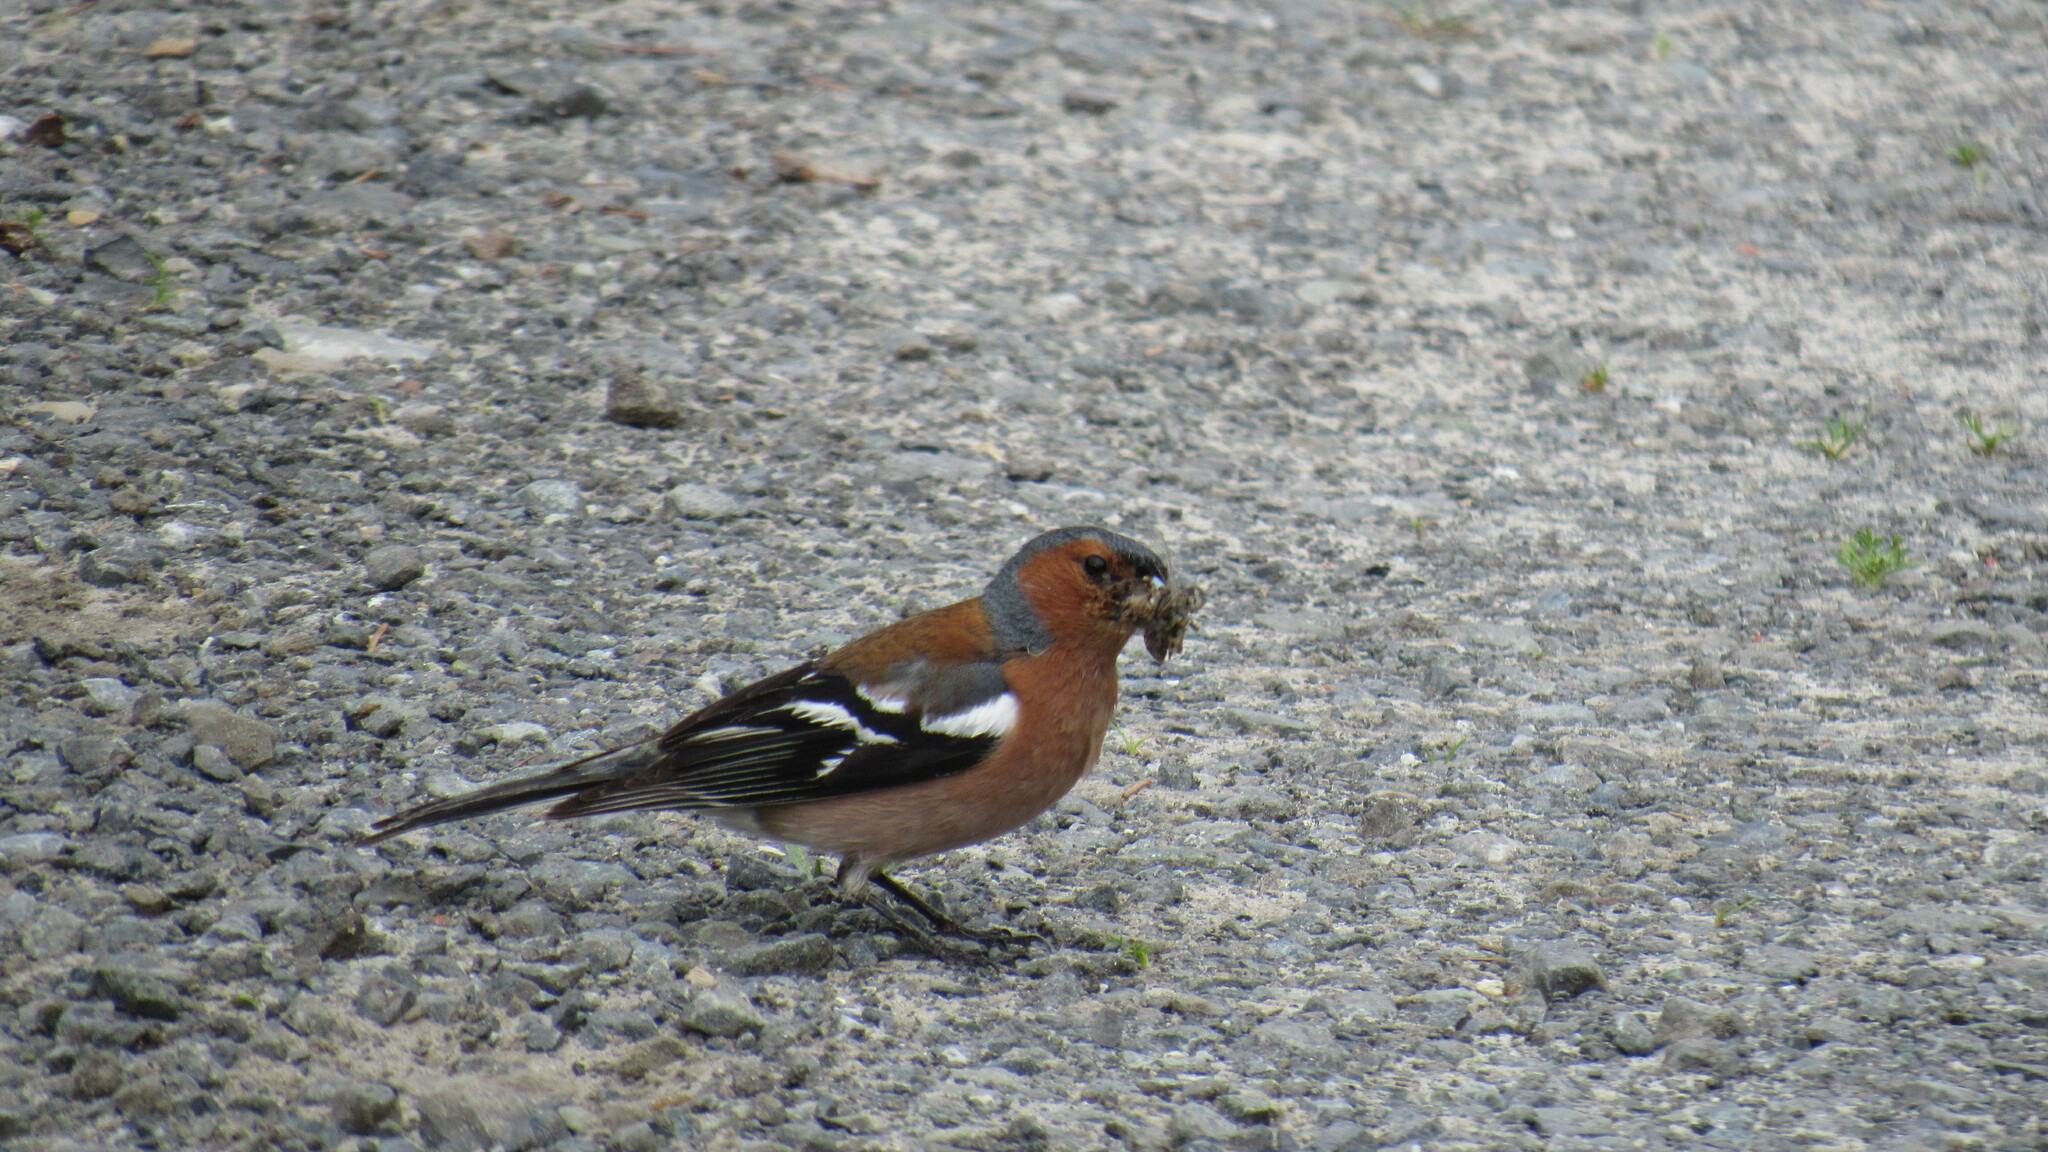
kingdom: Animalia
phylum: Chordata
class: Aves
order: Passeriformes
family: Fringillidae
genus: Fringilla
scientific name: Fringilla coelebs
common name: Common chaffinch
